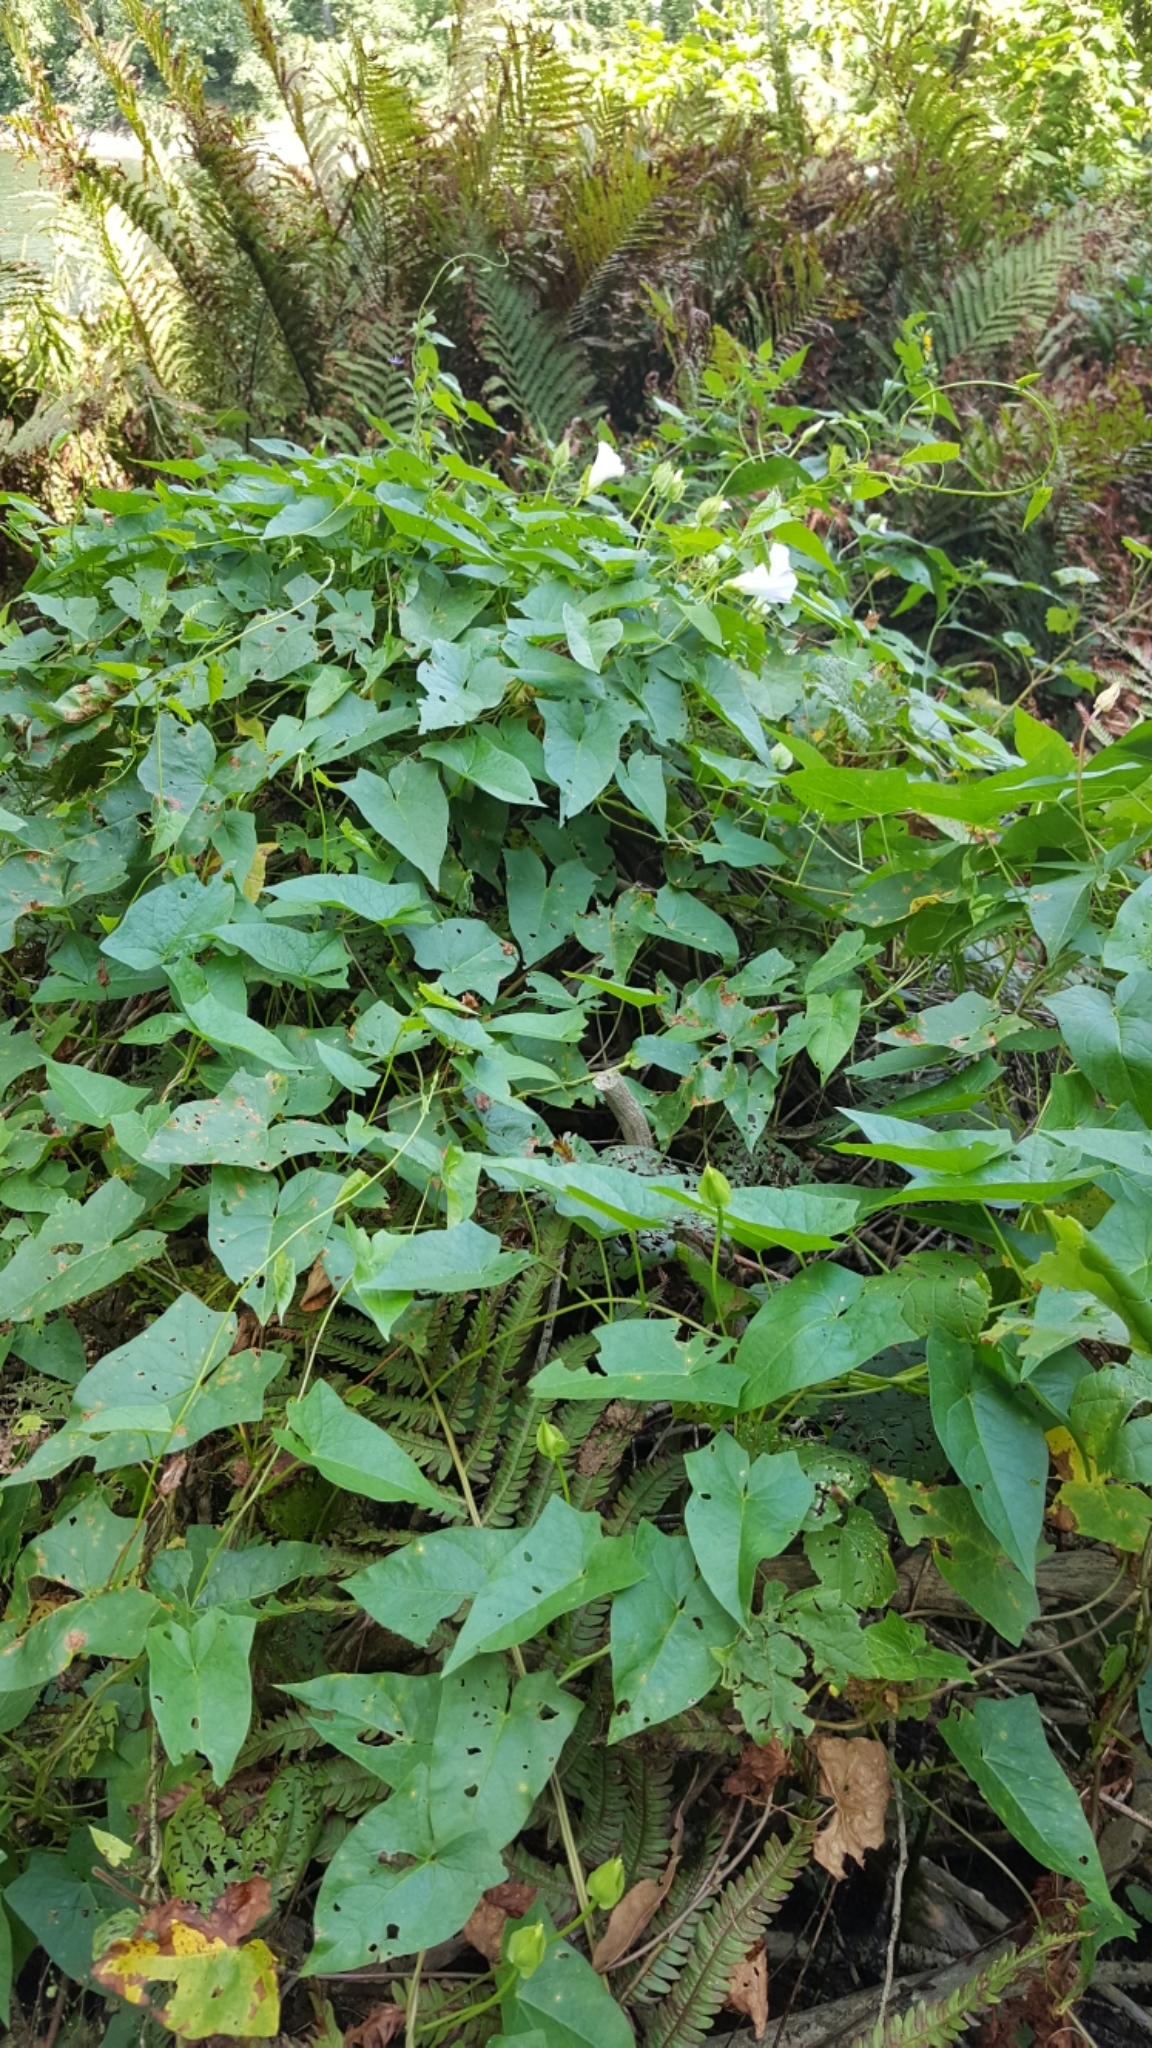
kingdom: Plantae
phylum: Tracheophyta
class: Magnoliopsida
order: Solanales
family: Convolvulaceae
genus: Calystegia
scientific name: Calystegia sepium
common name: Hedge bindweed
